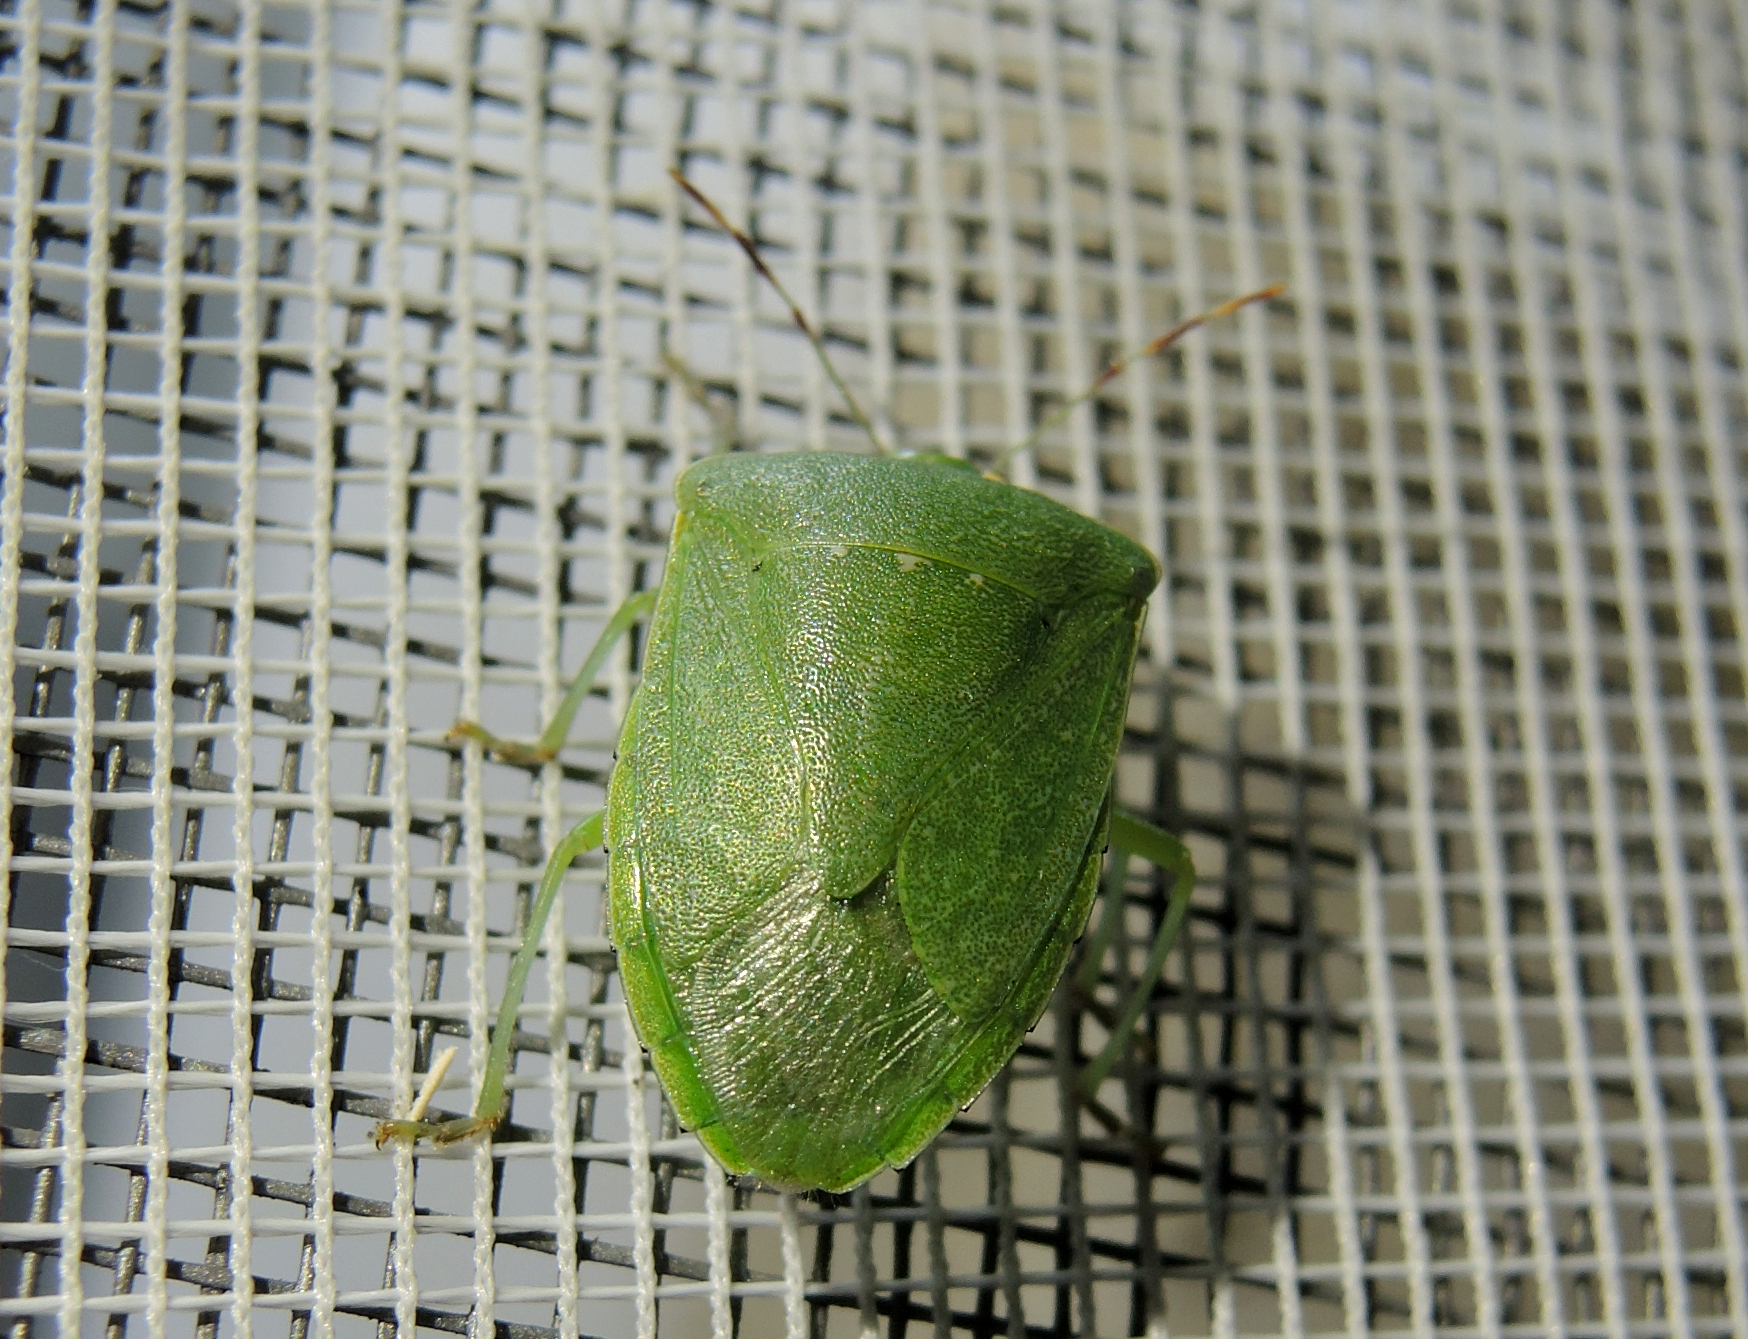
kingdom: Animalia
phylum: Arthropoda
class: Insecta
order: Hemiptera
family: Pentatomidae
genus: Nezara
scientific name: Nezara viridula
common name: Southern green stink bug
